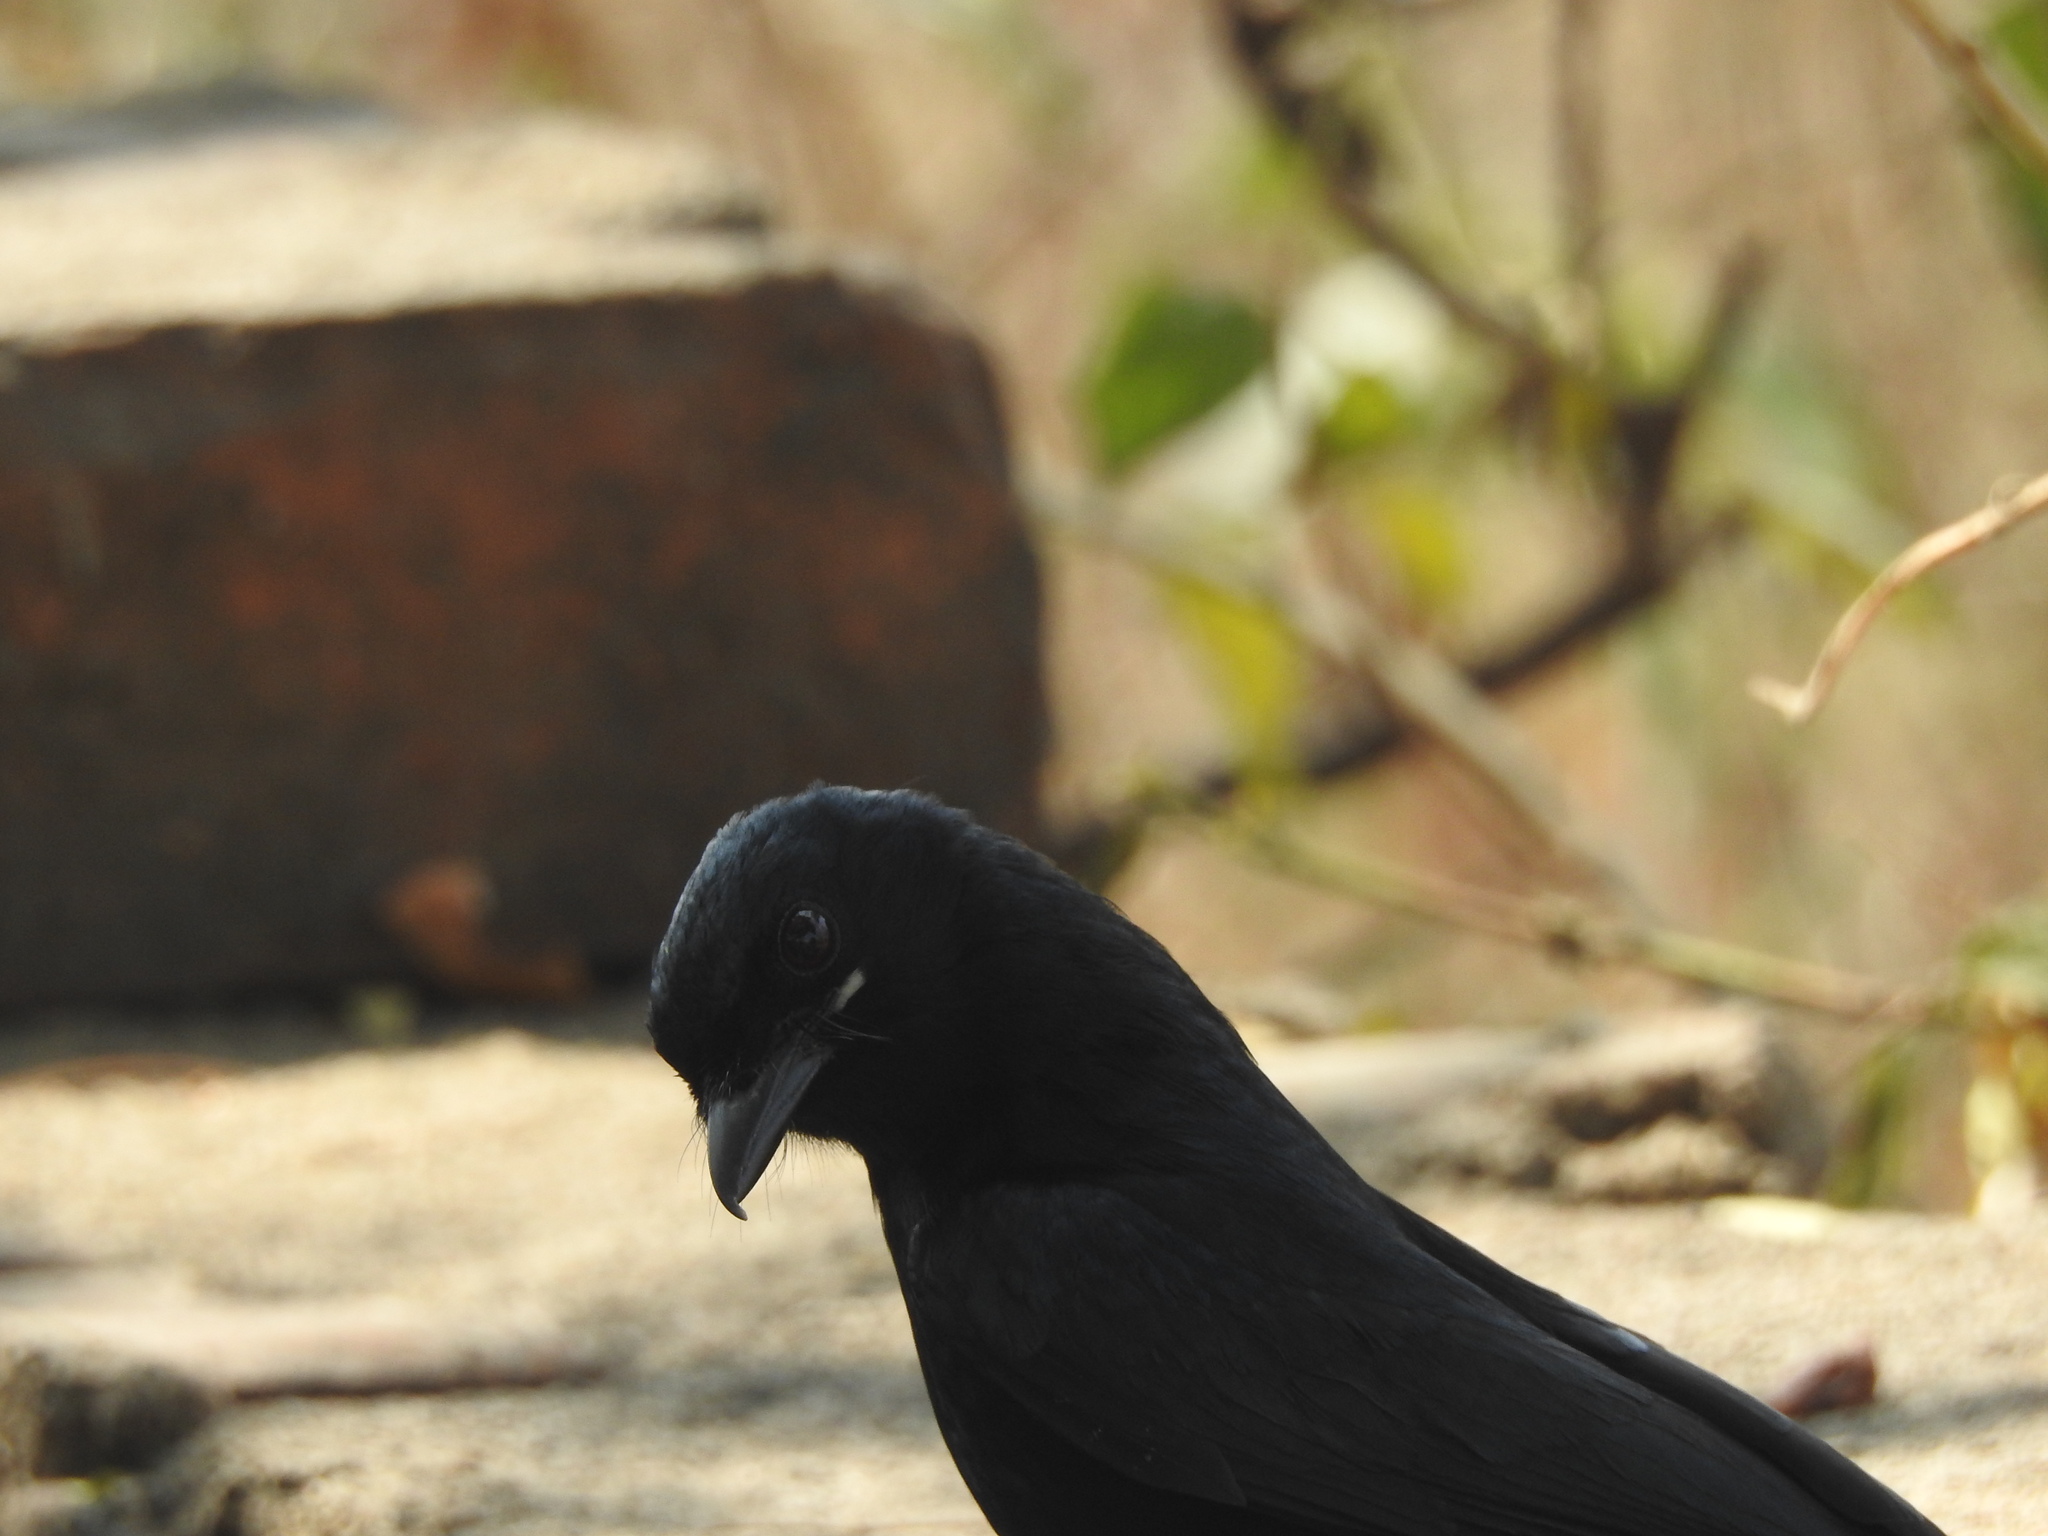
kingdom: Animalia
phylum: Chordata
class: Aves
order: Passeriformes
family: Dicruridae
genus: Dicrurus
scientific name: Dicrurus macrocercus
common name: Black drongo
